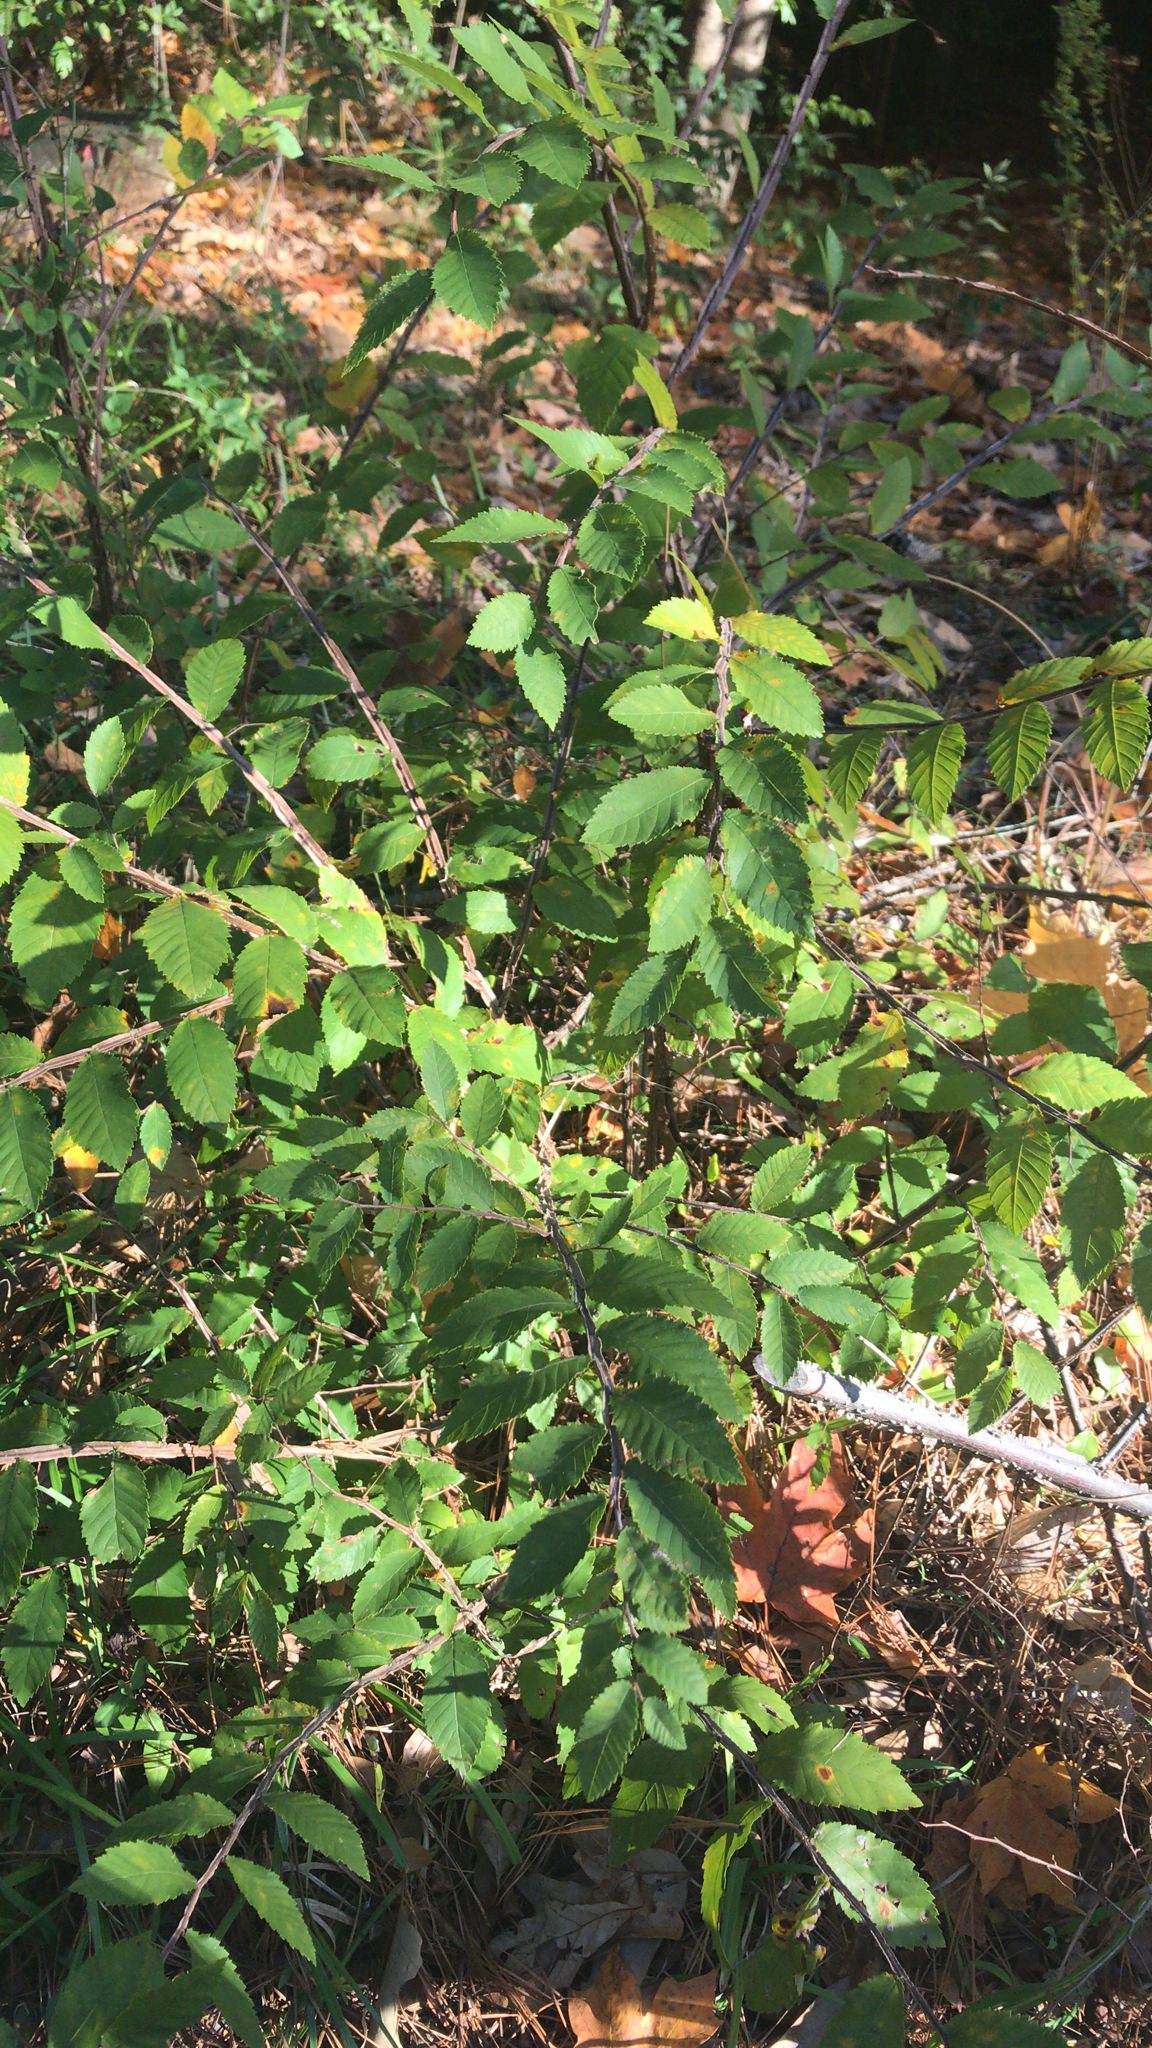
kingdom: Plantae
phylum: Tracheophyta
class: Magnoliopsida
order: Rosales
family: Ulmaceae
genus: Ulmus
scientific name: Ulmus alata
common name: Winged elm
